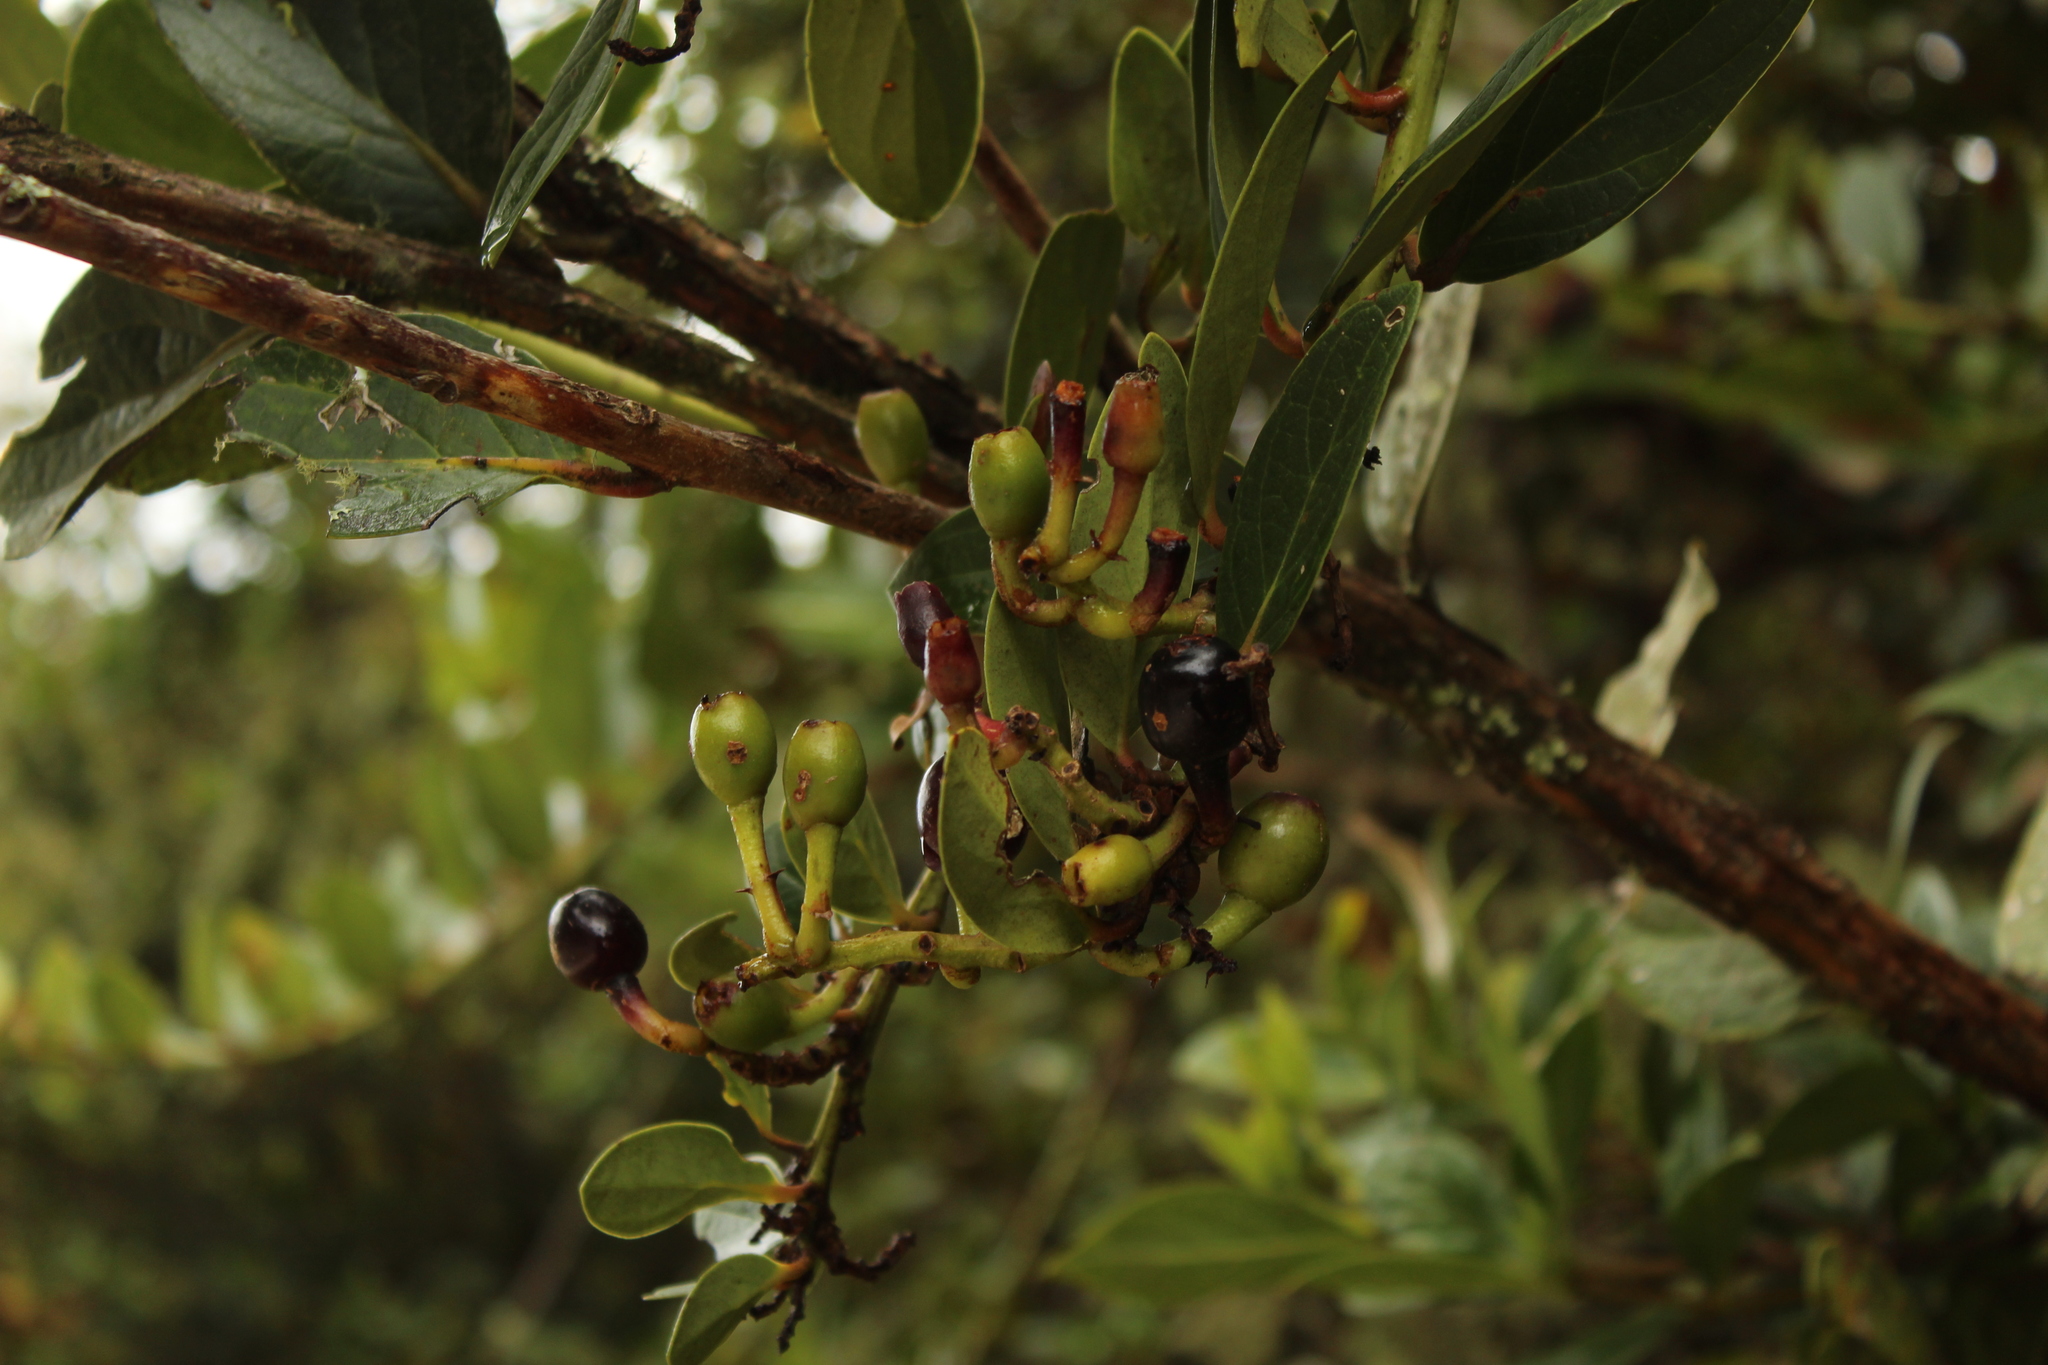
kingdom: Plantae
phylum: Tracheophyta
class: Magnoliopsida
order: Ericales
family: Ericaceae
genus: Macleania
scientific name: Macleania rupestris
